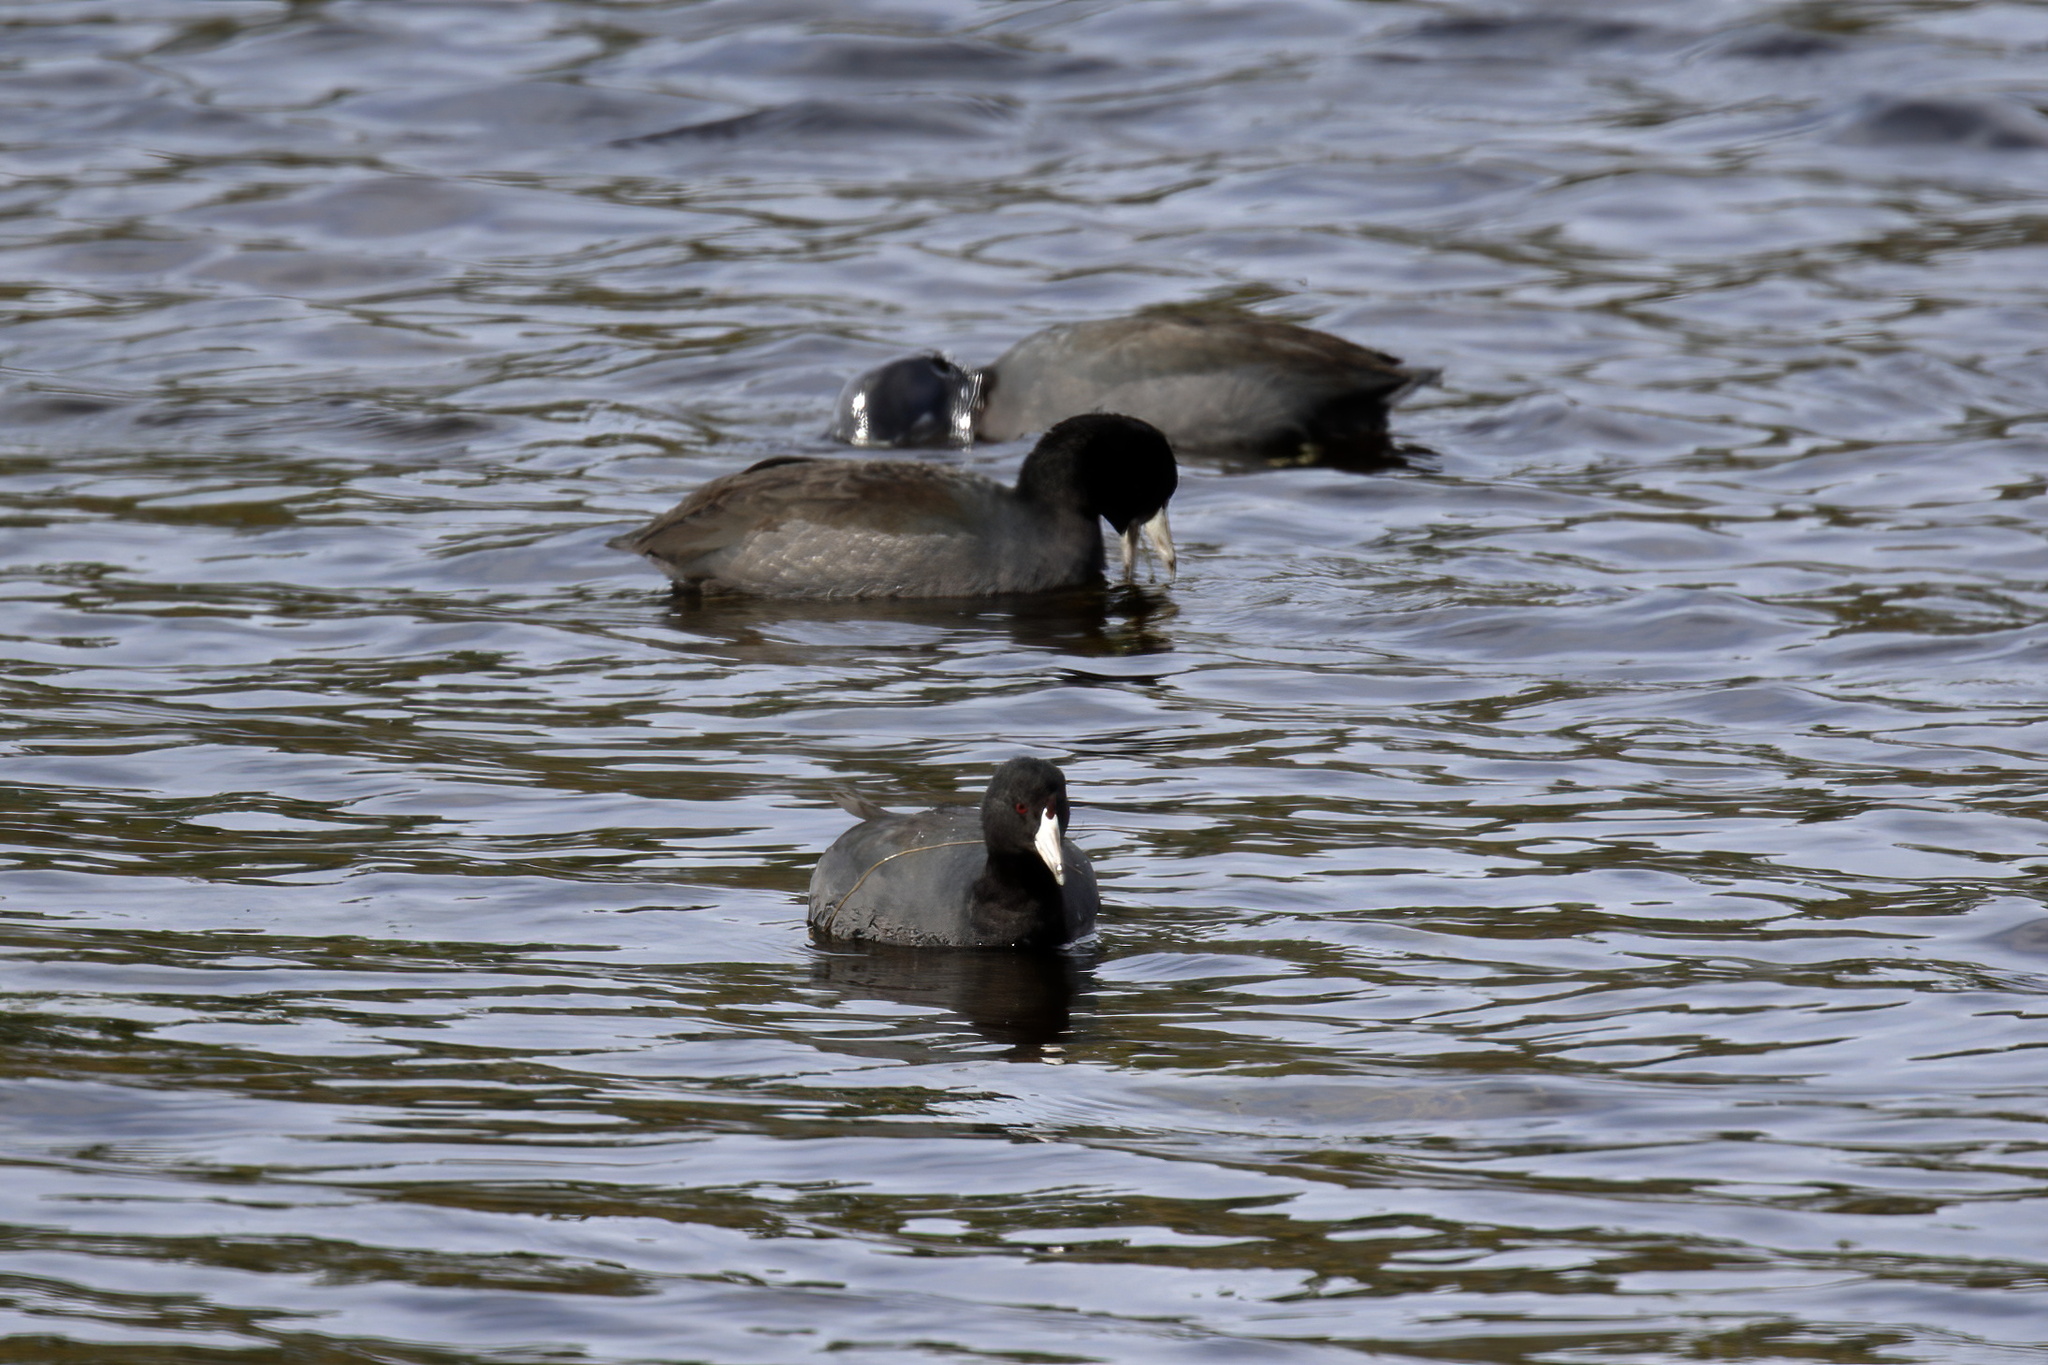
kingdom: Animalia
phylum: Chordata
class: Aves
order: Gruiformes
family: Rallidae
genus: Fulica
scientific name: Fulica americana
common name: American coot
